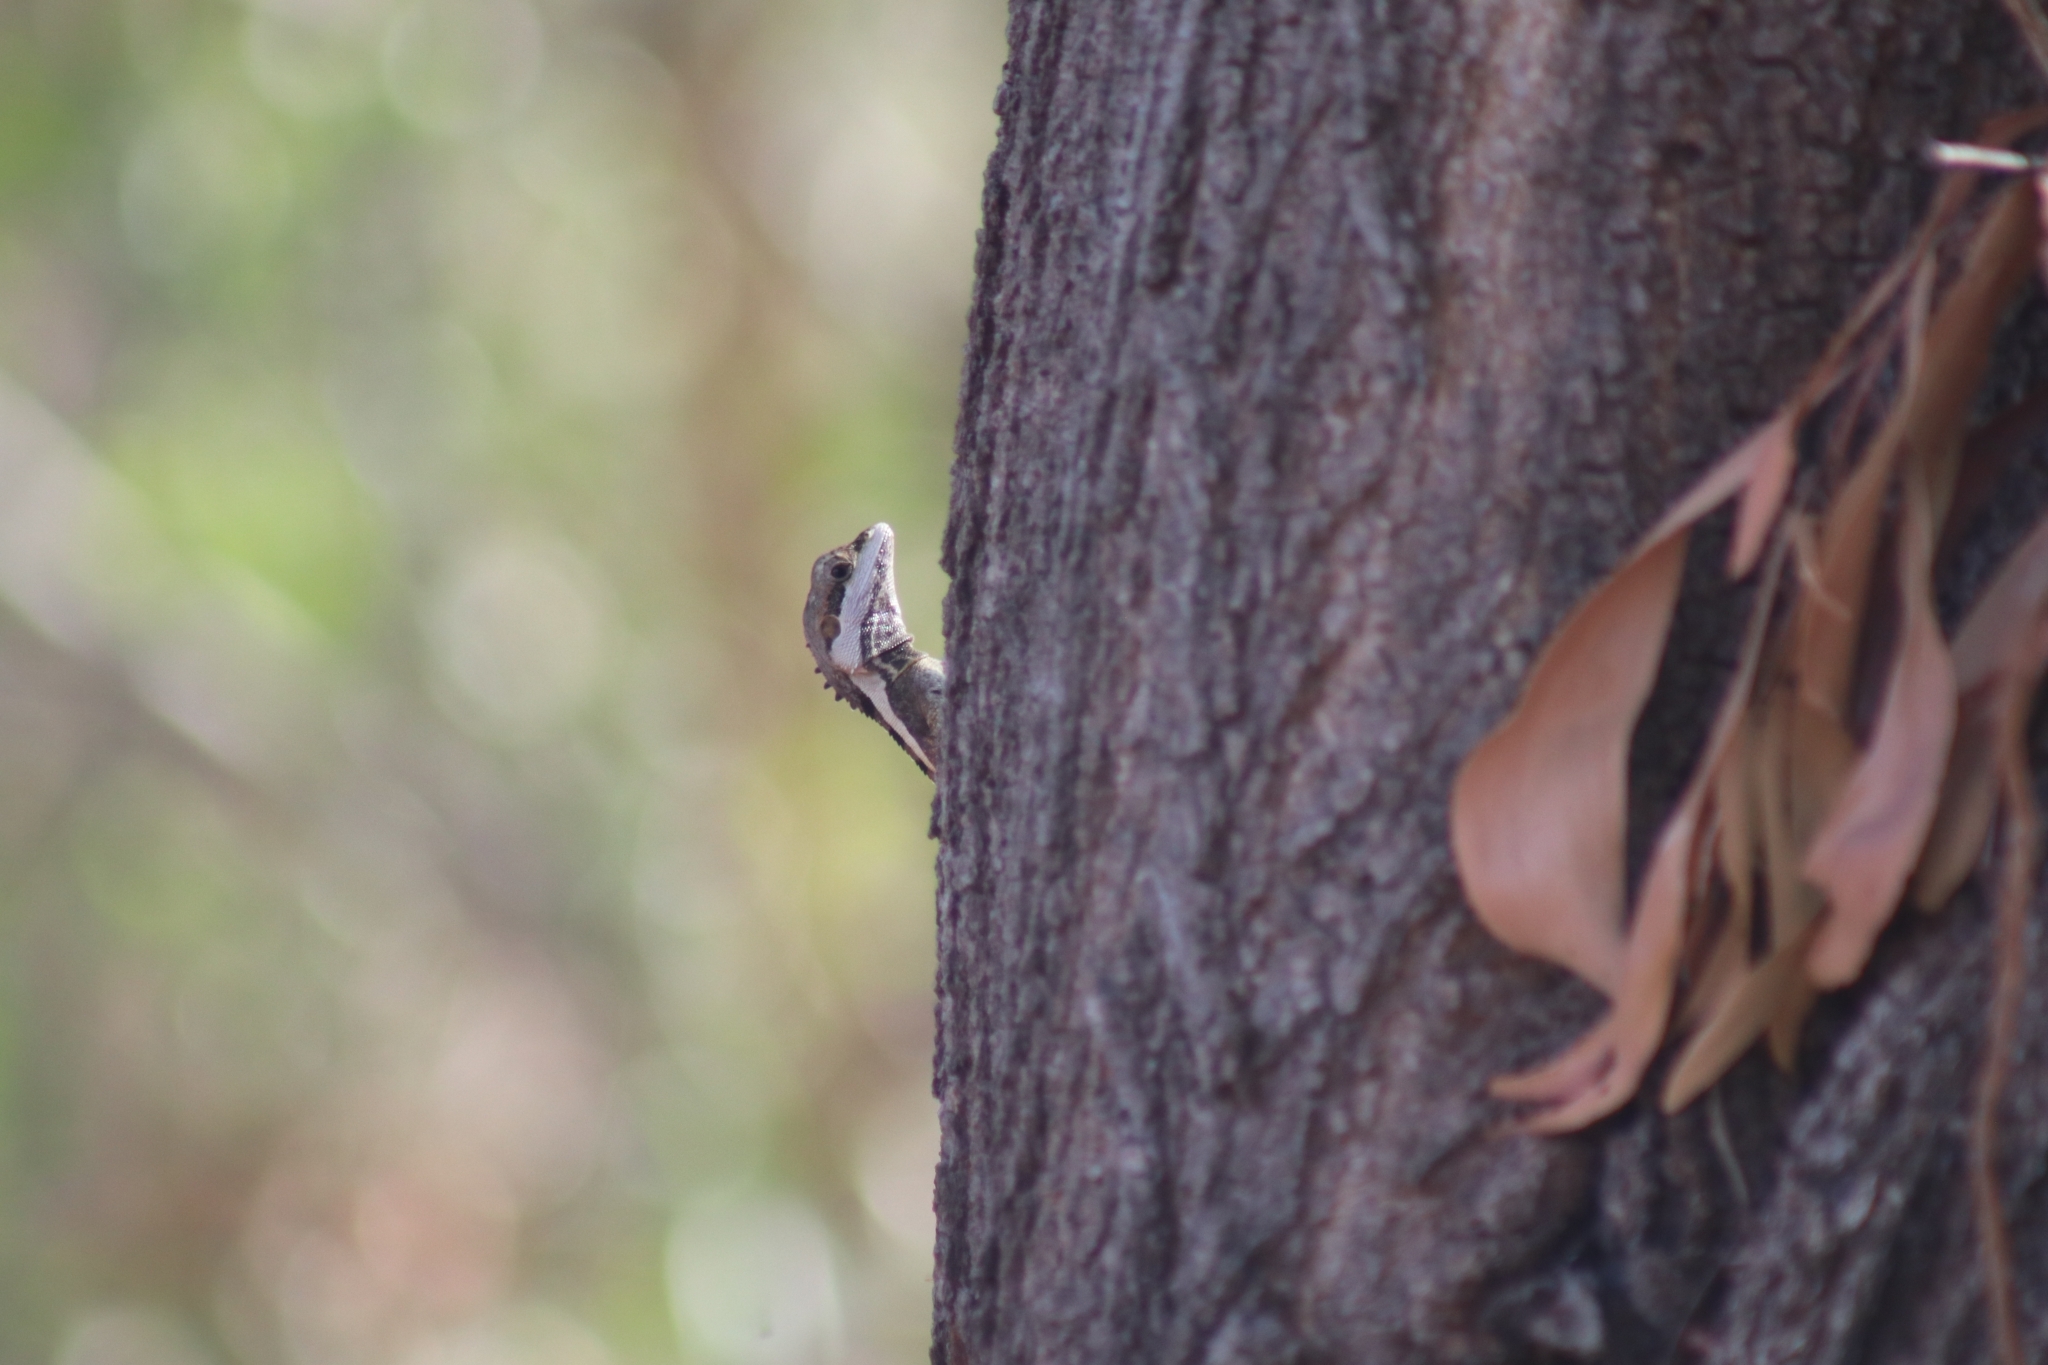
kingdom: Animalia
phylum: Chordata
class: Squamata
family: Agamidae
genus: Tropicagama
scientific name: Tropicagama temporalis
